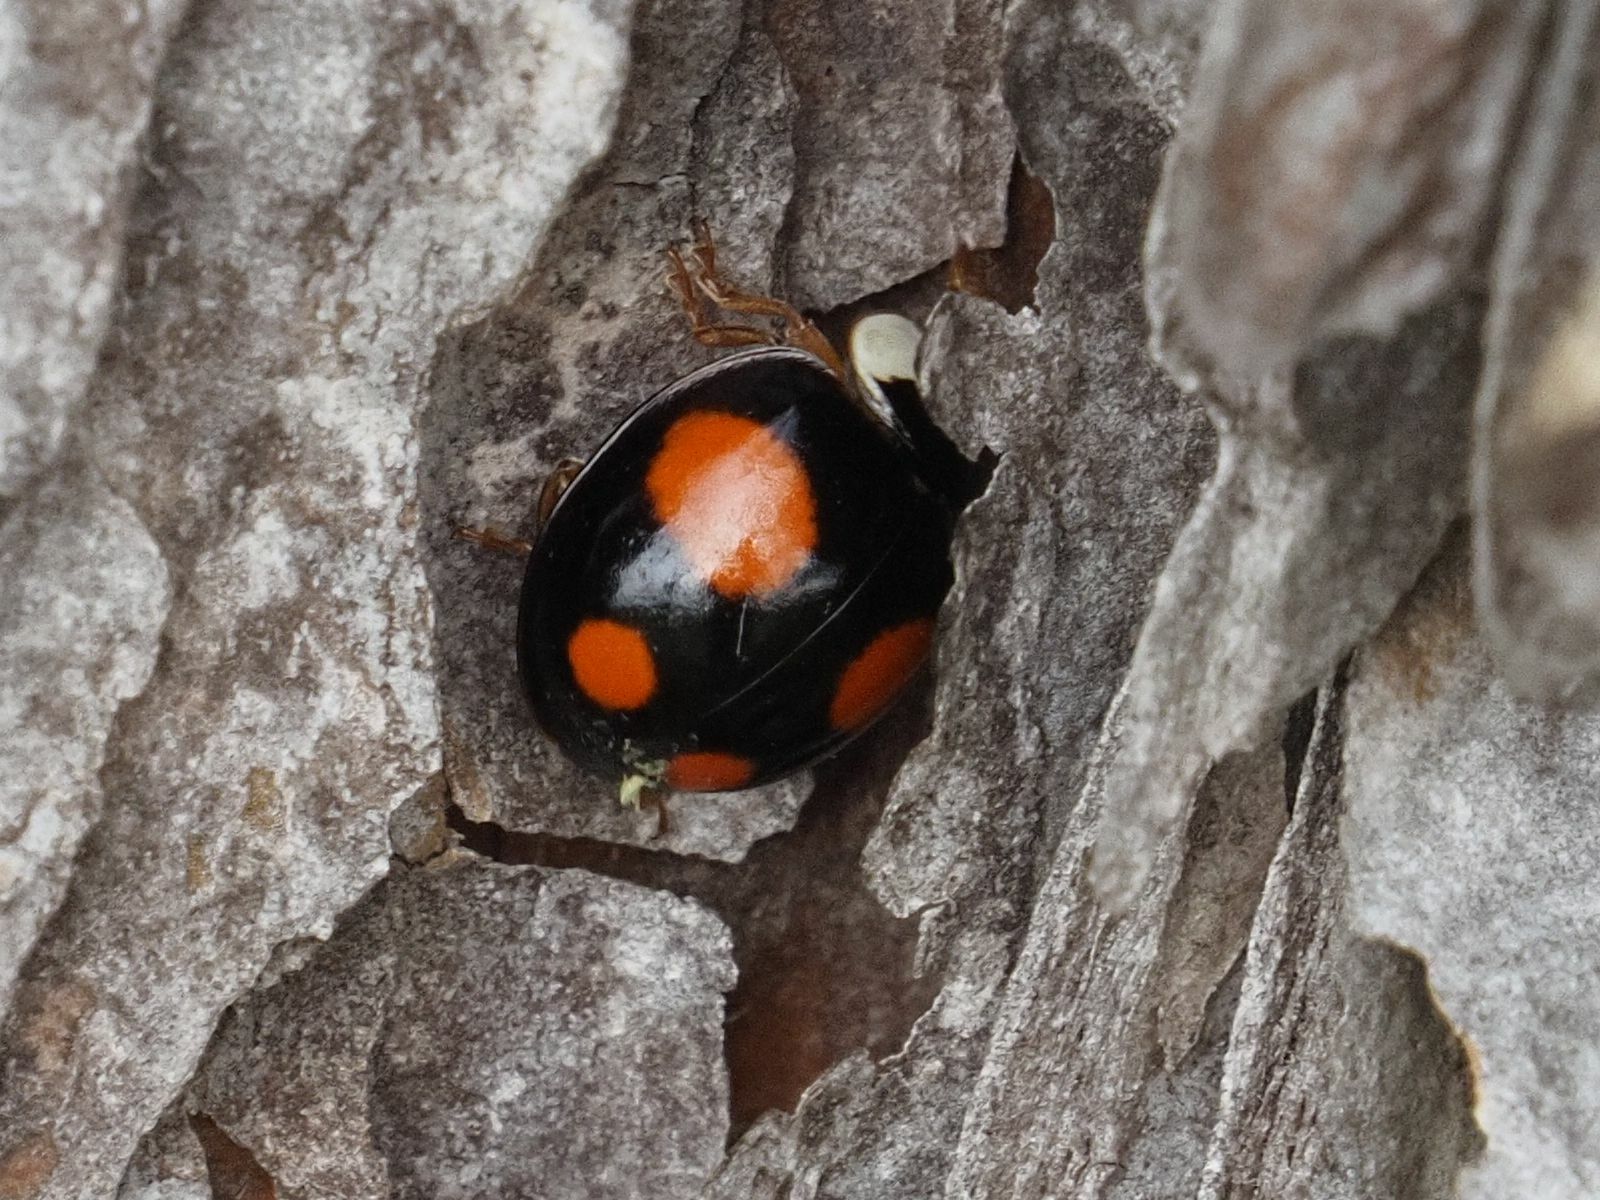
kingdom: Animalia
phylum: Arthropoda
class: Insecta
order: Coleoptera
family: Coccinellidae
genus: Harmonia
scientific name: Harmonia axyridis
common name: Harlequin ladybird
